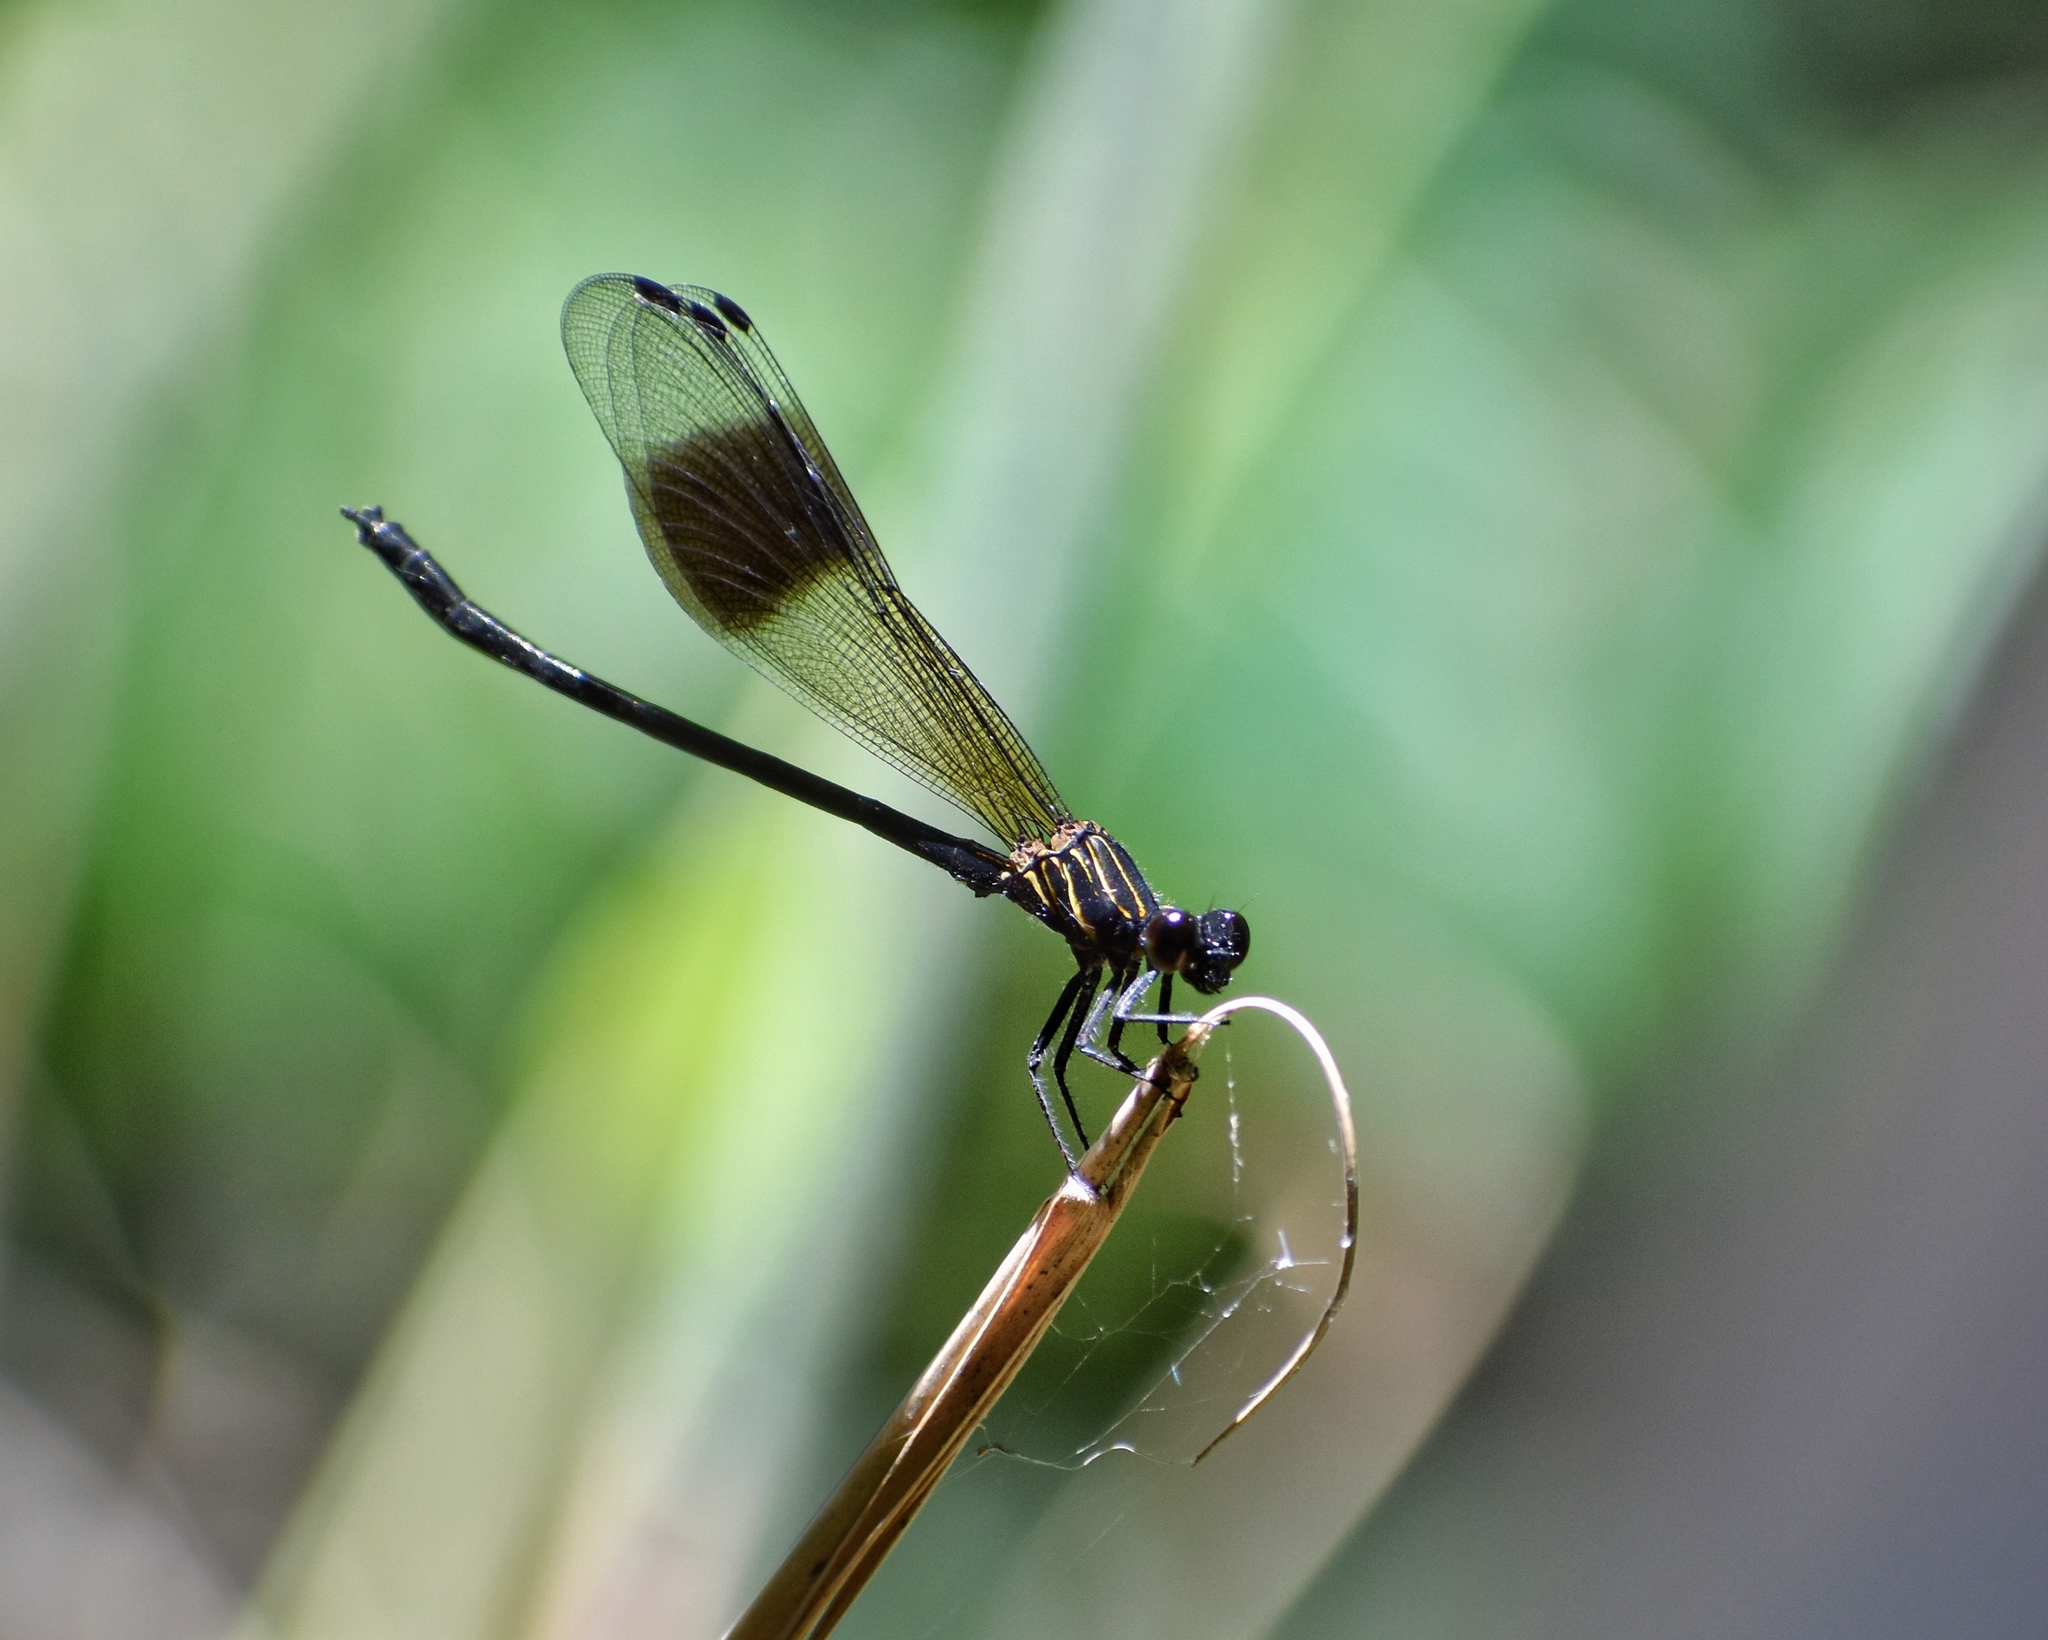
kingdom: Animalia
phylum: Arthropoda
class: Insecta
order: Odonata
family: Euphaeidae
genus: Euphaea
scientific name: Euphaea decorata
